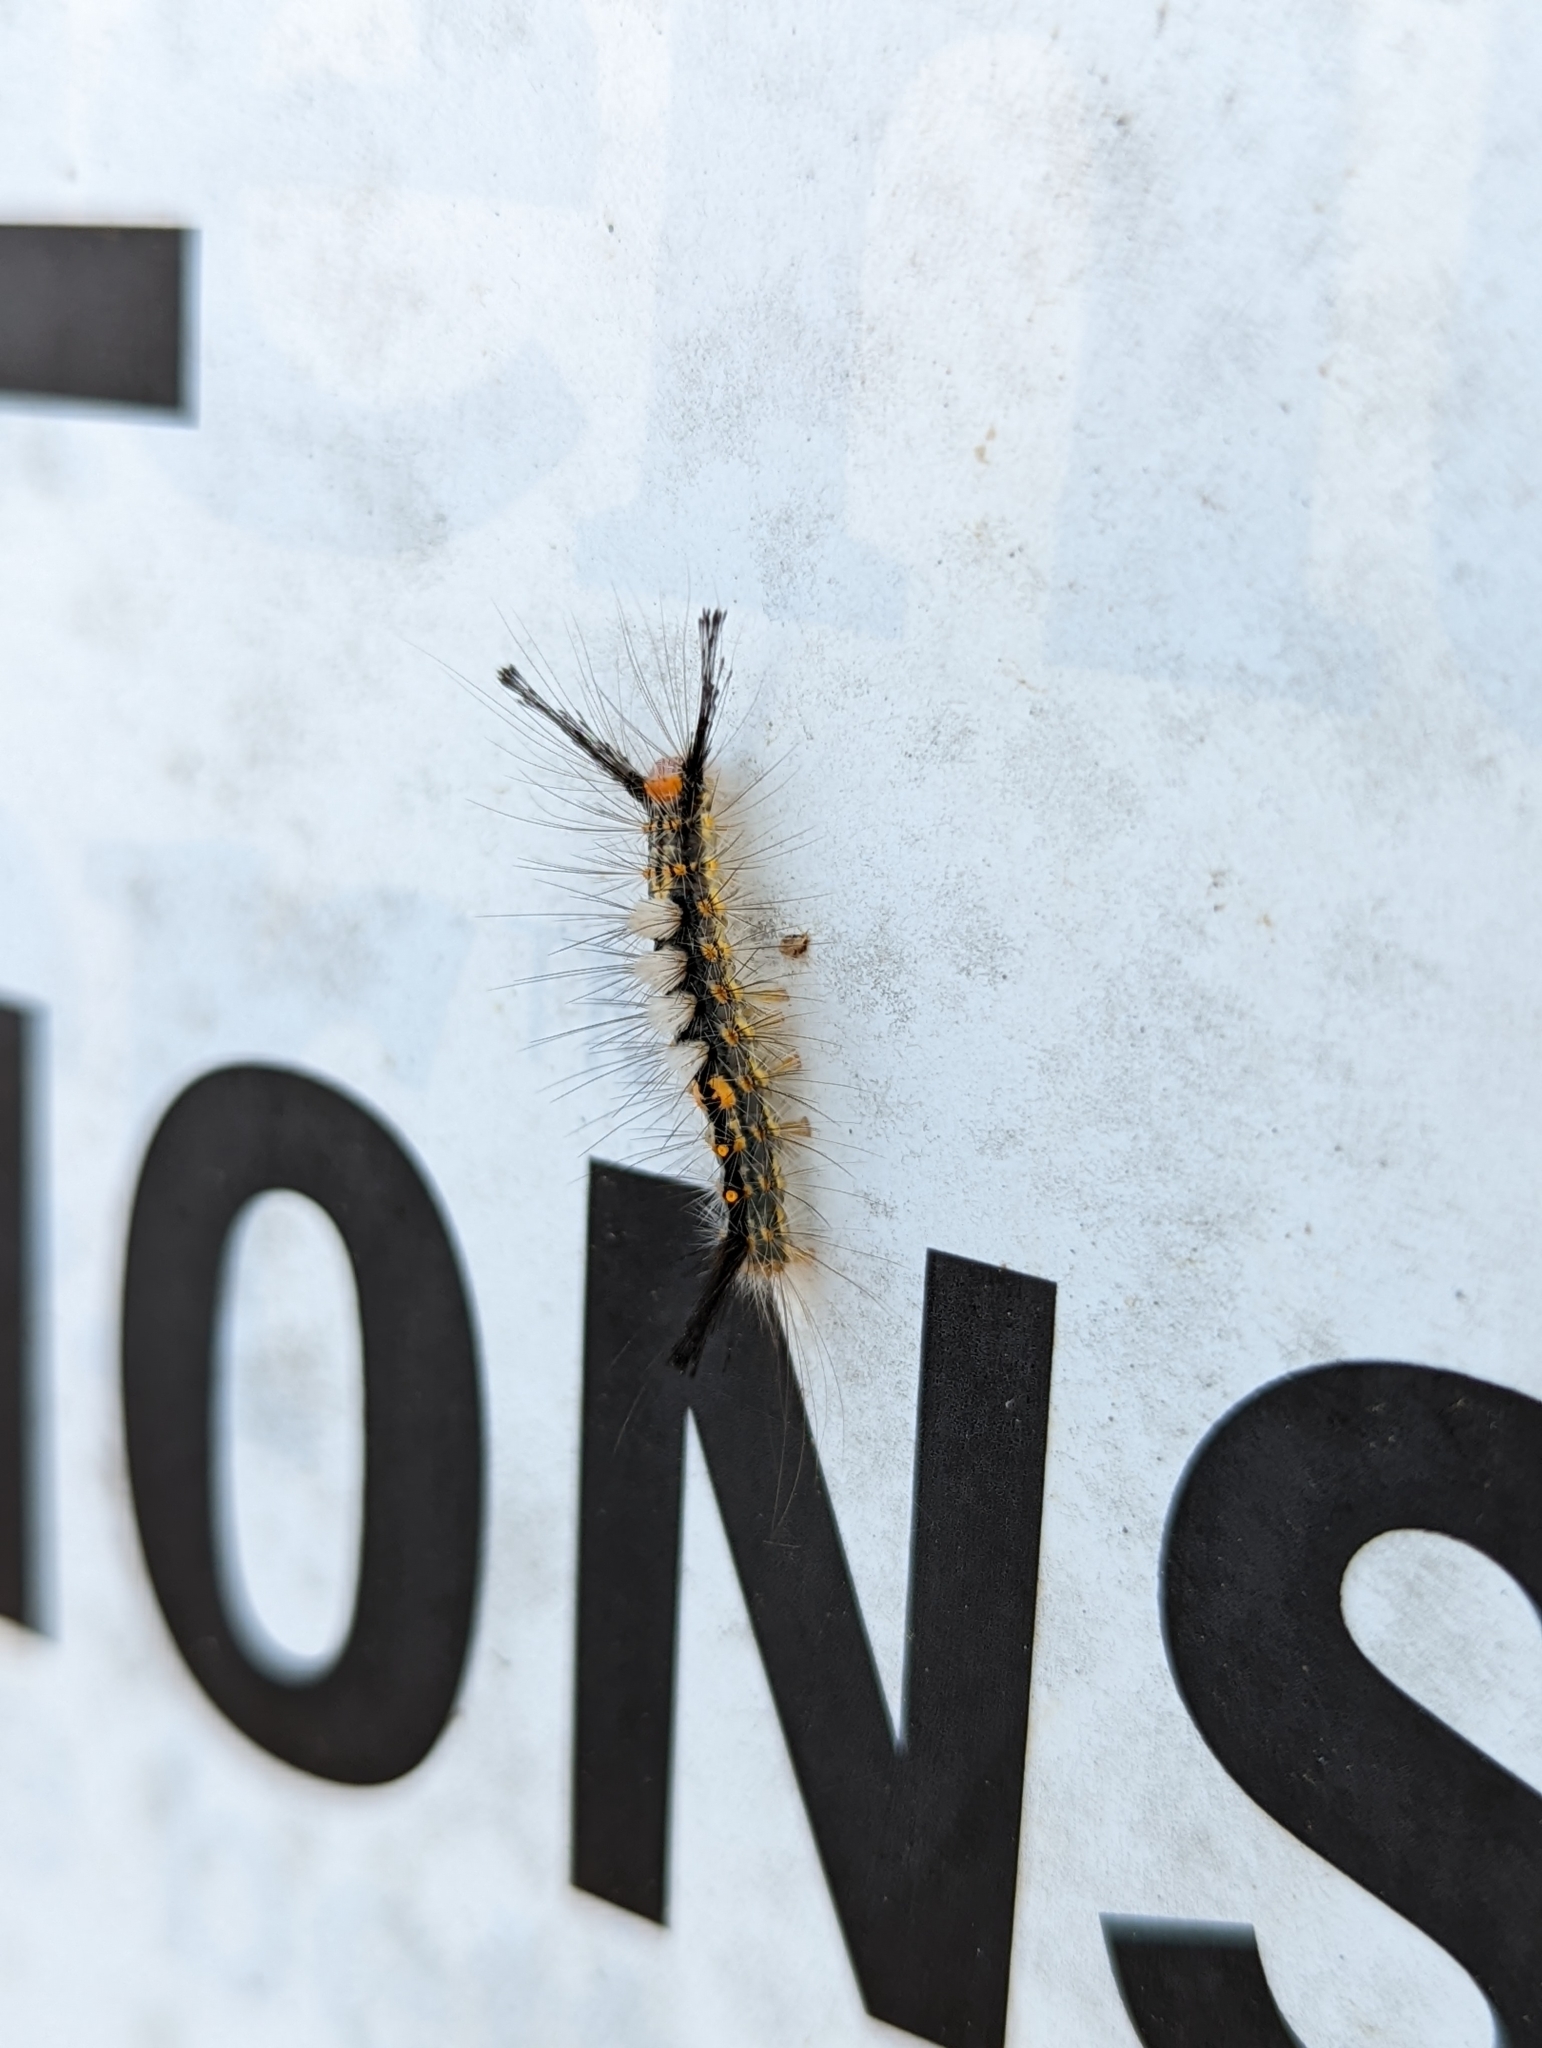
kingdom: Animalia
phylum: Arthropoda
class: Insecta
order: Lepidoptera
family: Erebidae
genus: Orgyia
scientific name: Orgyia detrita
